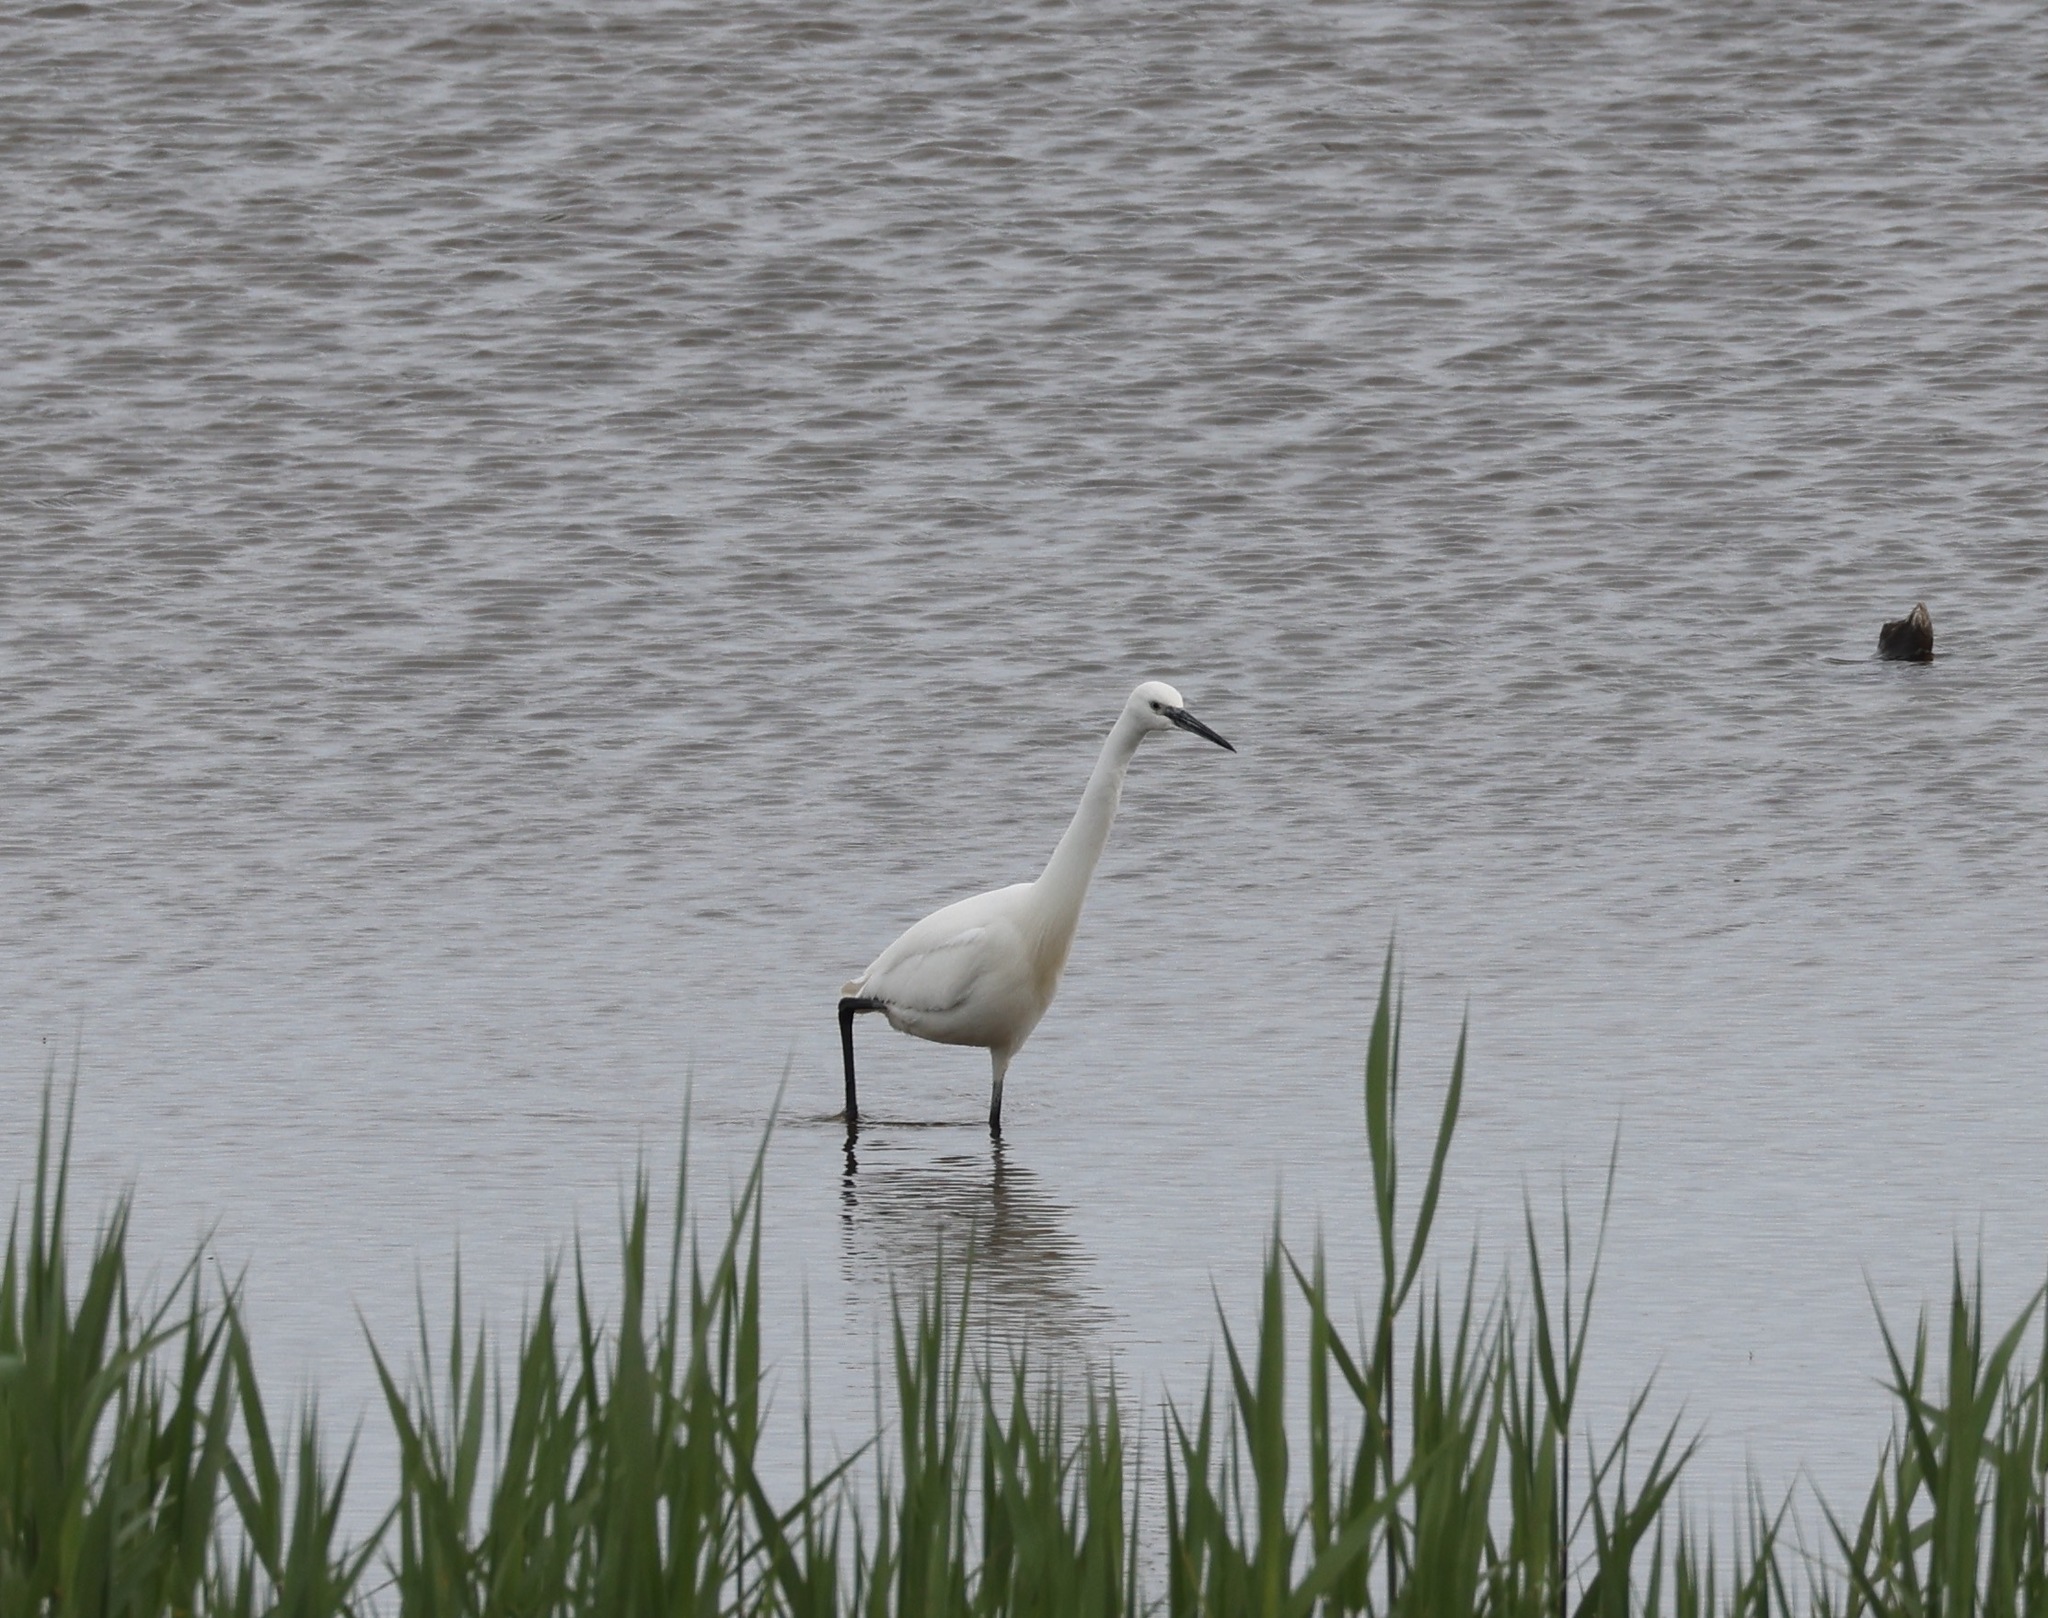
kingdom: Animalia
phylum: Chordata
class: Aves
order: Pelecaniformes
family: Ardeidae
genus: Egretta
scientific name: Egretta garzetta
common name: Little egret
